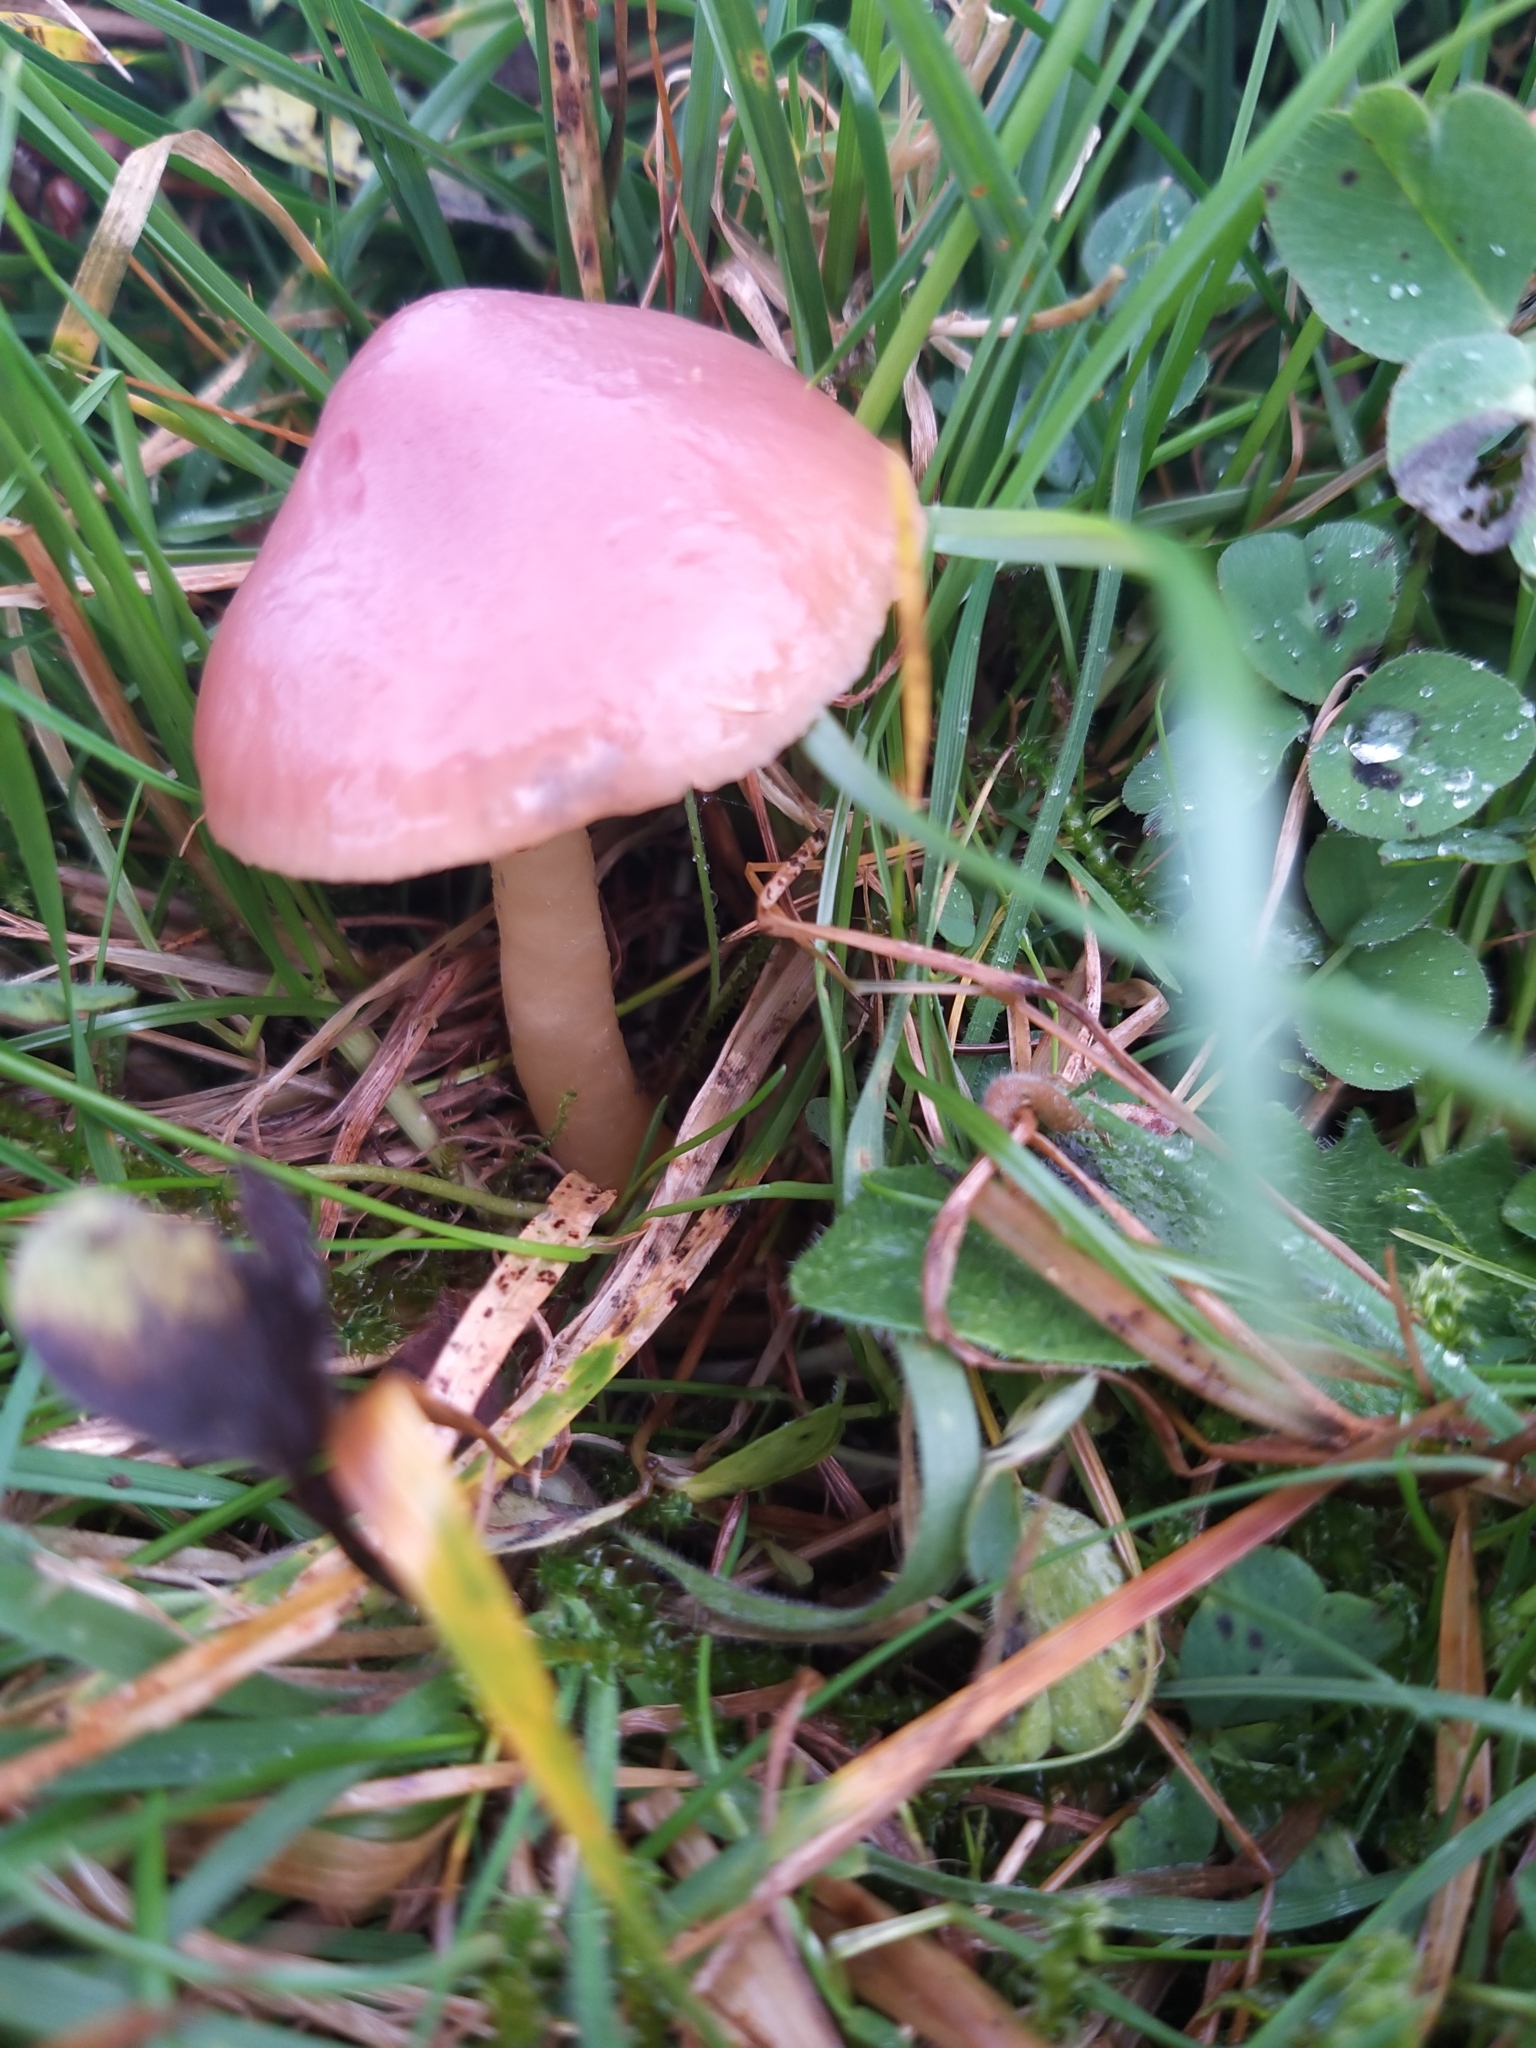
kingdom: Fungi
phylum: Basidiomycota
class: Agaricomycetes
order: Agaricales
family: Hygrophoraceae
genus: Gliophorus
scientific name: Gliophorus reginae
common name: Jubilee waxcap
